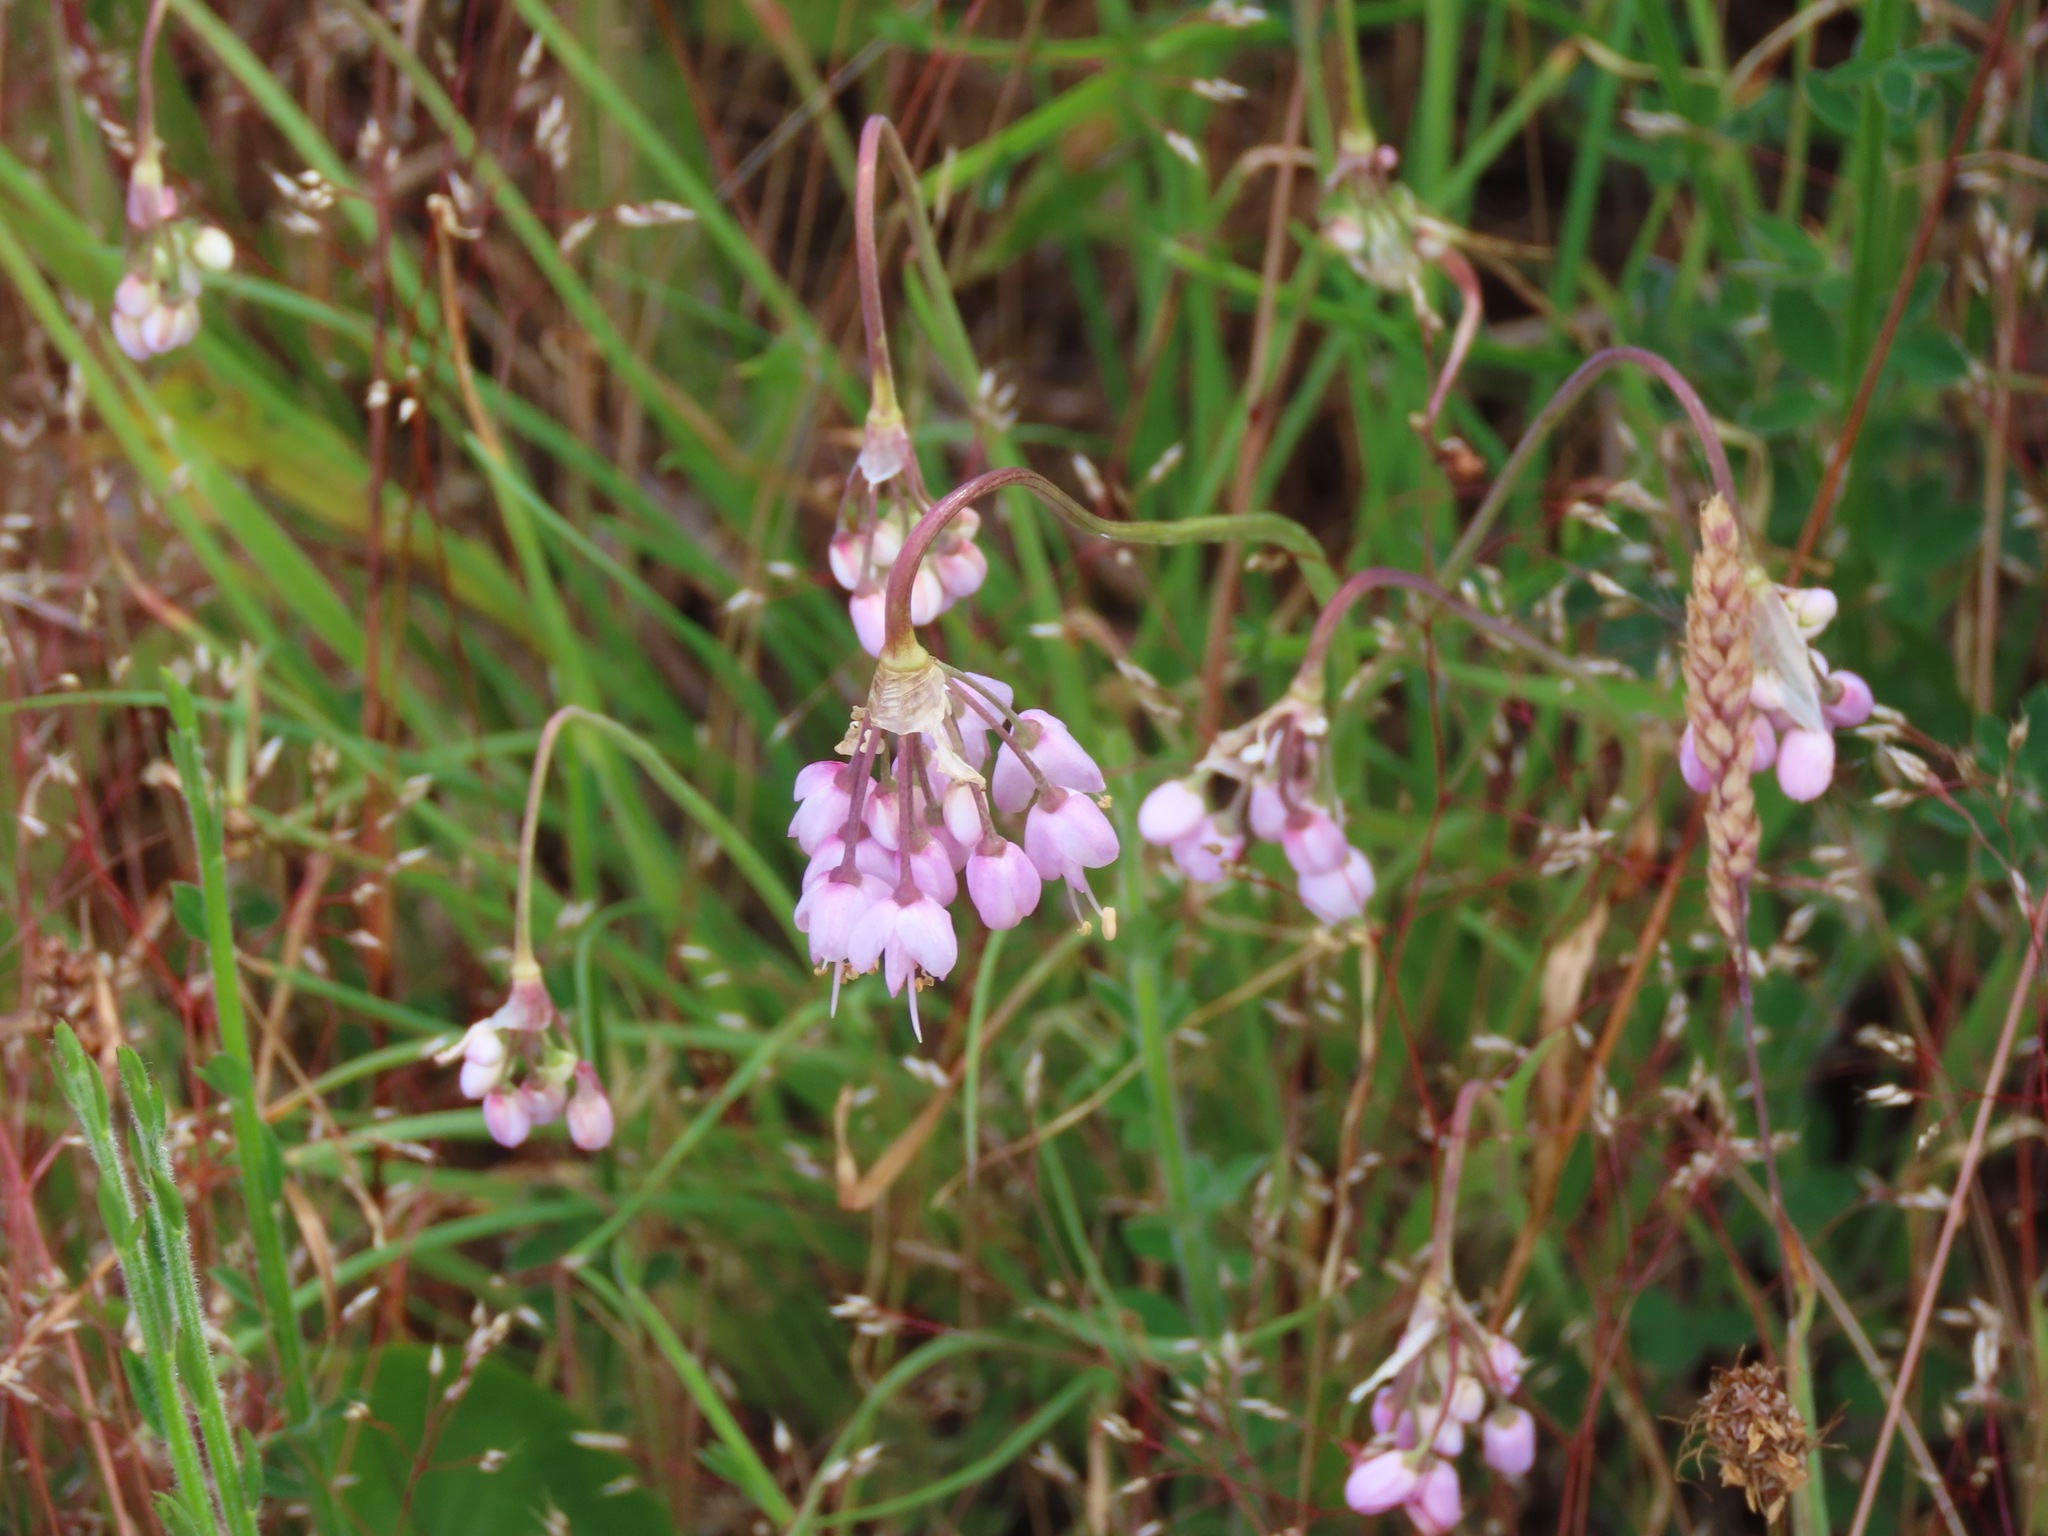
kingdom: Plantae
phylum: Tracheophyta
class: Liliopsida
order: Asparagales
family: Amaryllidaceae
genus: Allium
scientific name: Allium cernuum
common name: Nodding onion
